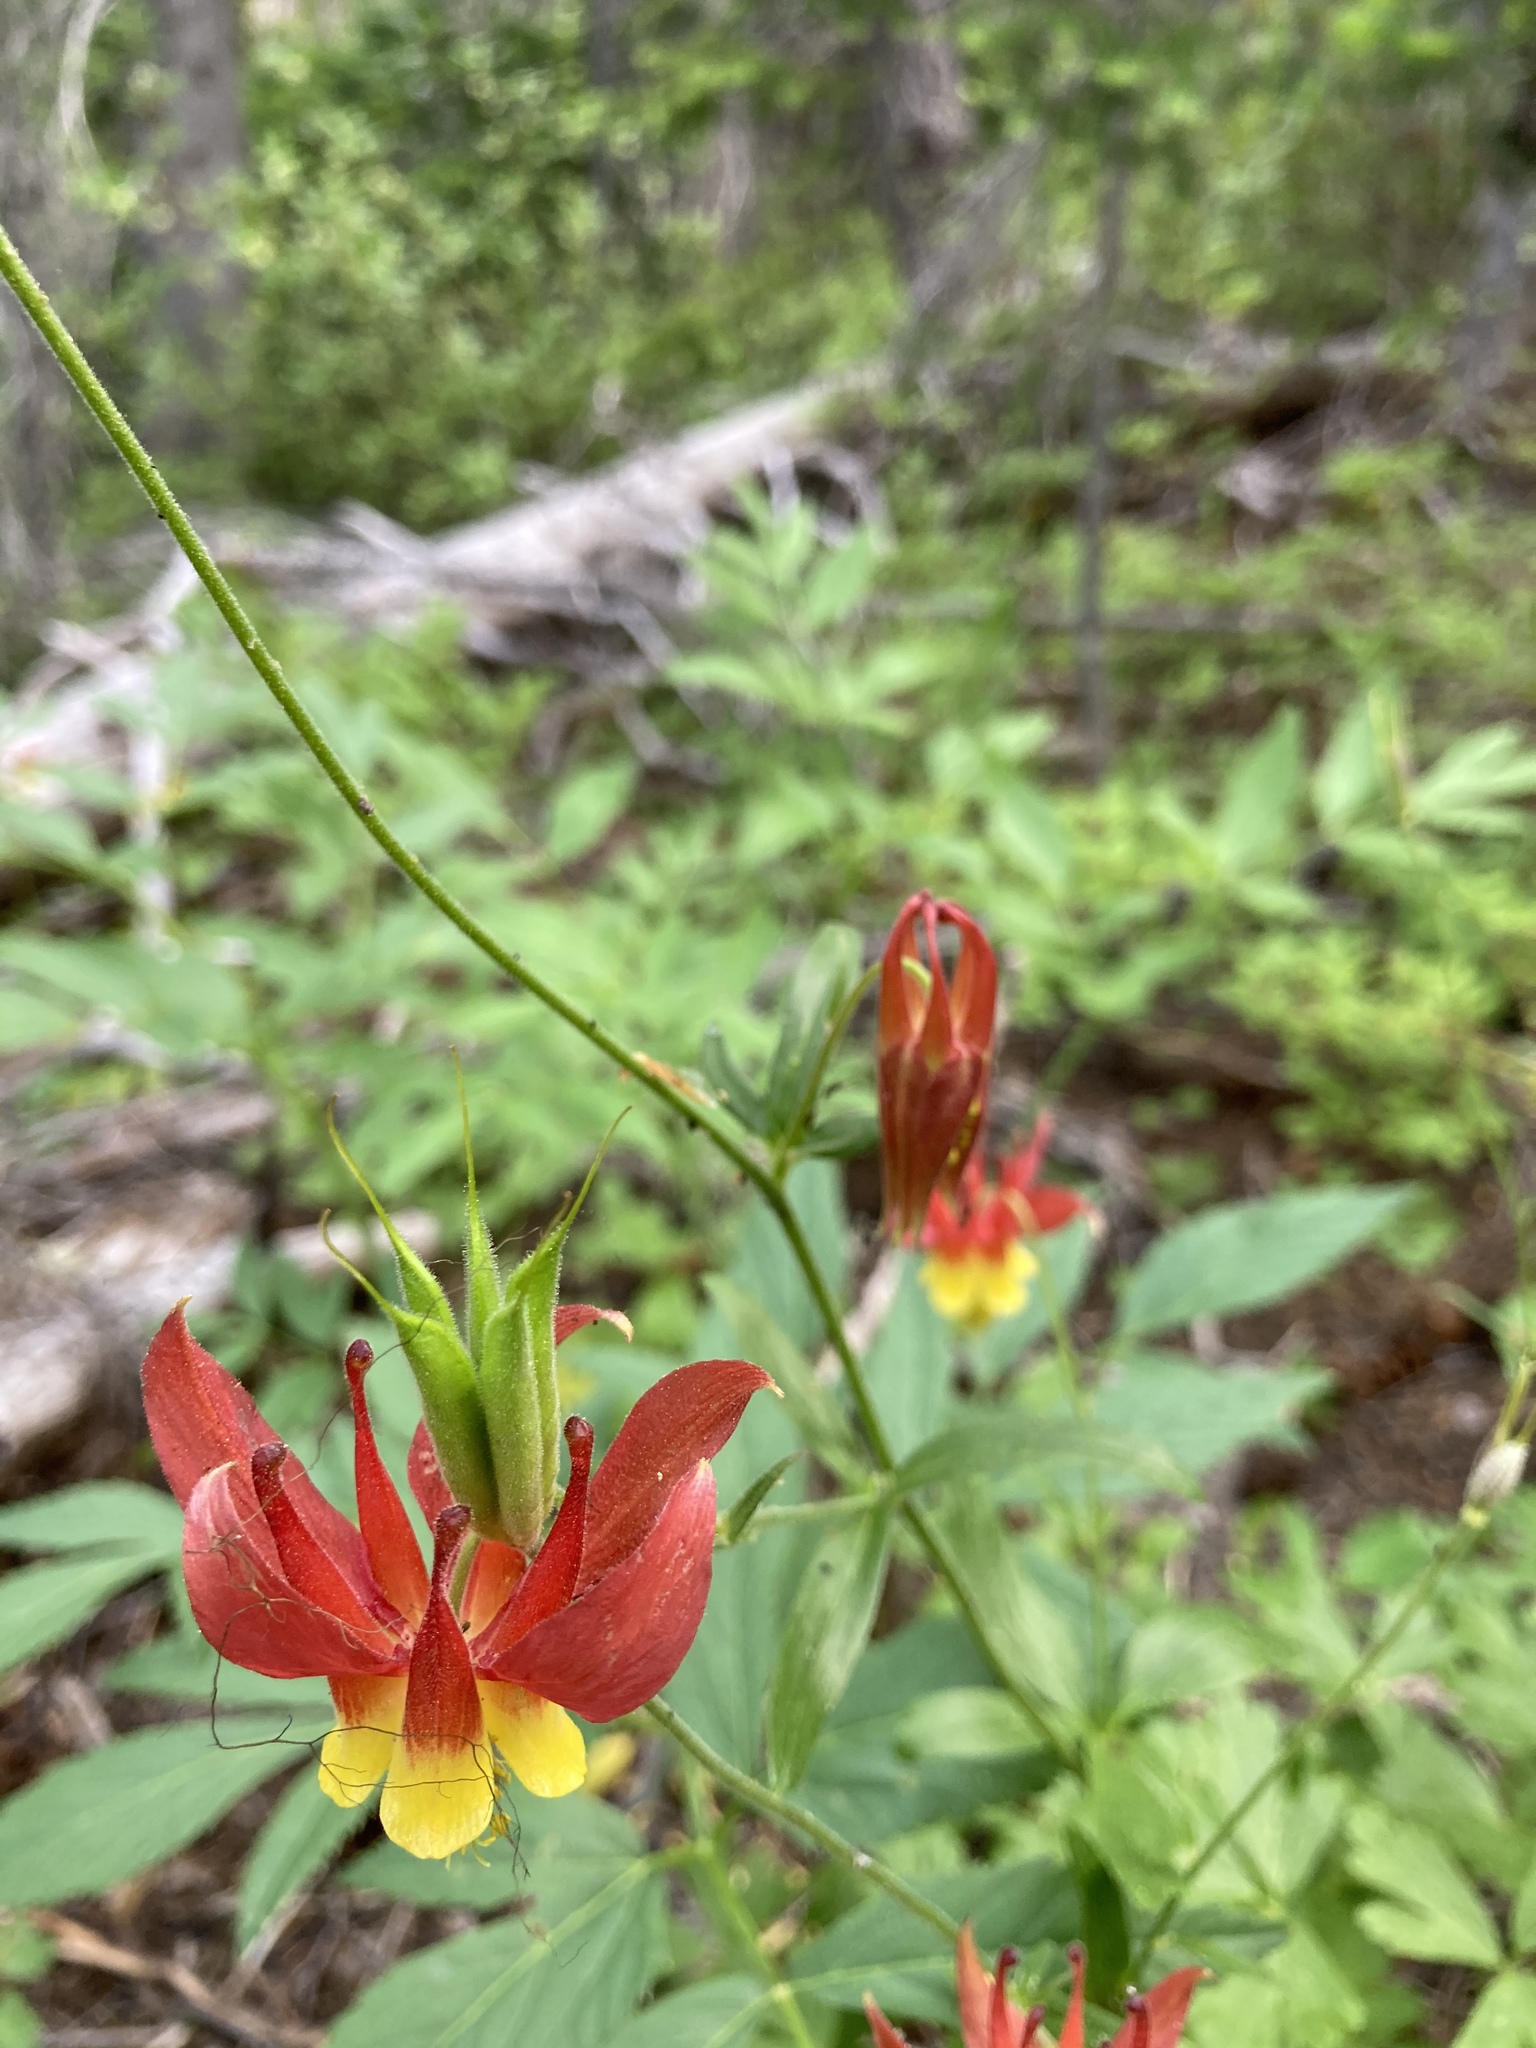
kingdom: Plantae
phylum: Tracheophyta
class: Magnoliopsida
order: Ranunculales
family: Ranunculaceae
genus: Aquilegia
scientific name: Aquilegia formosa
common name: Sitka columbine
